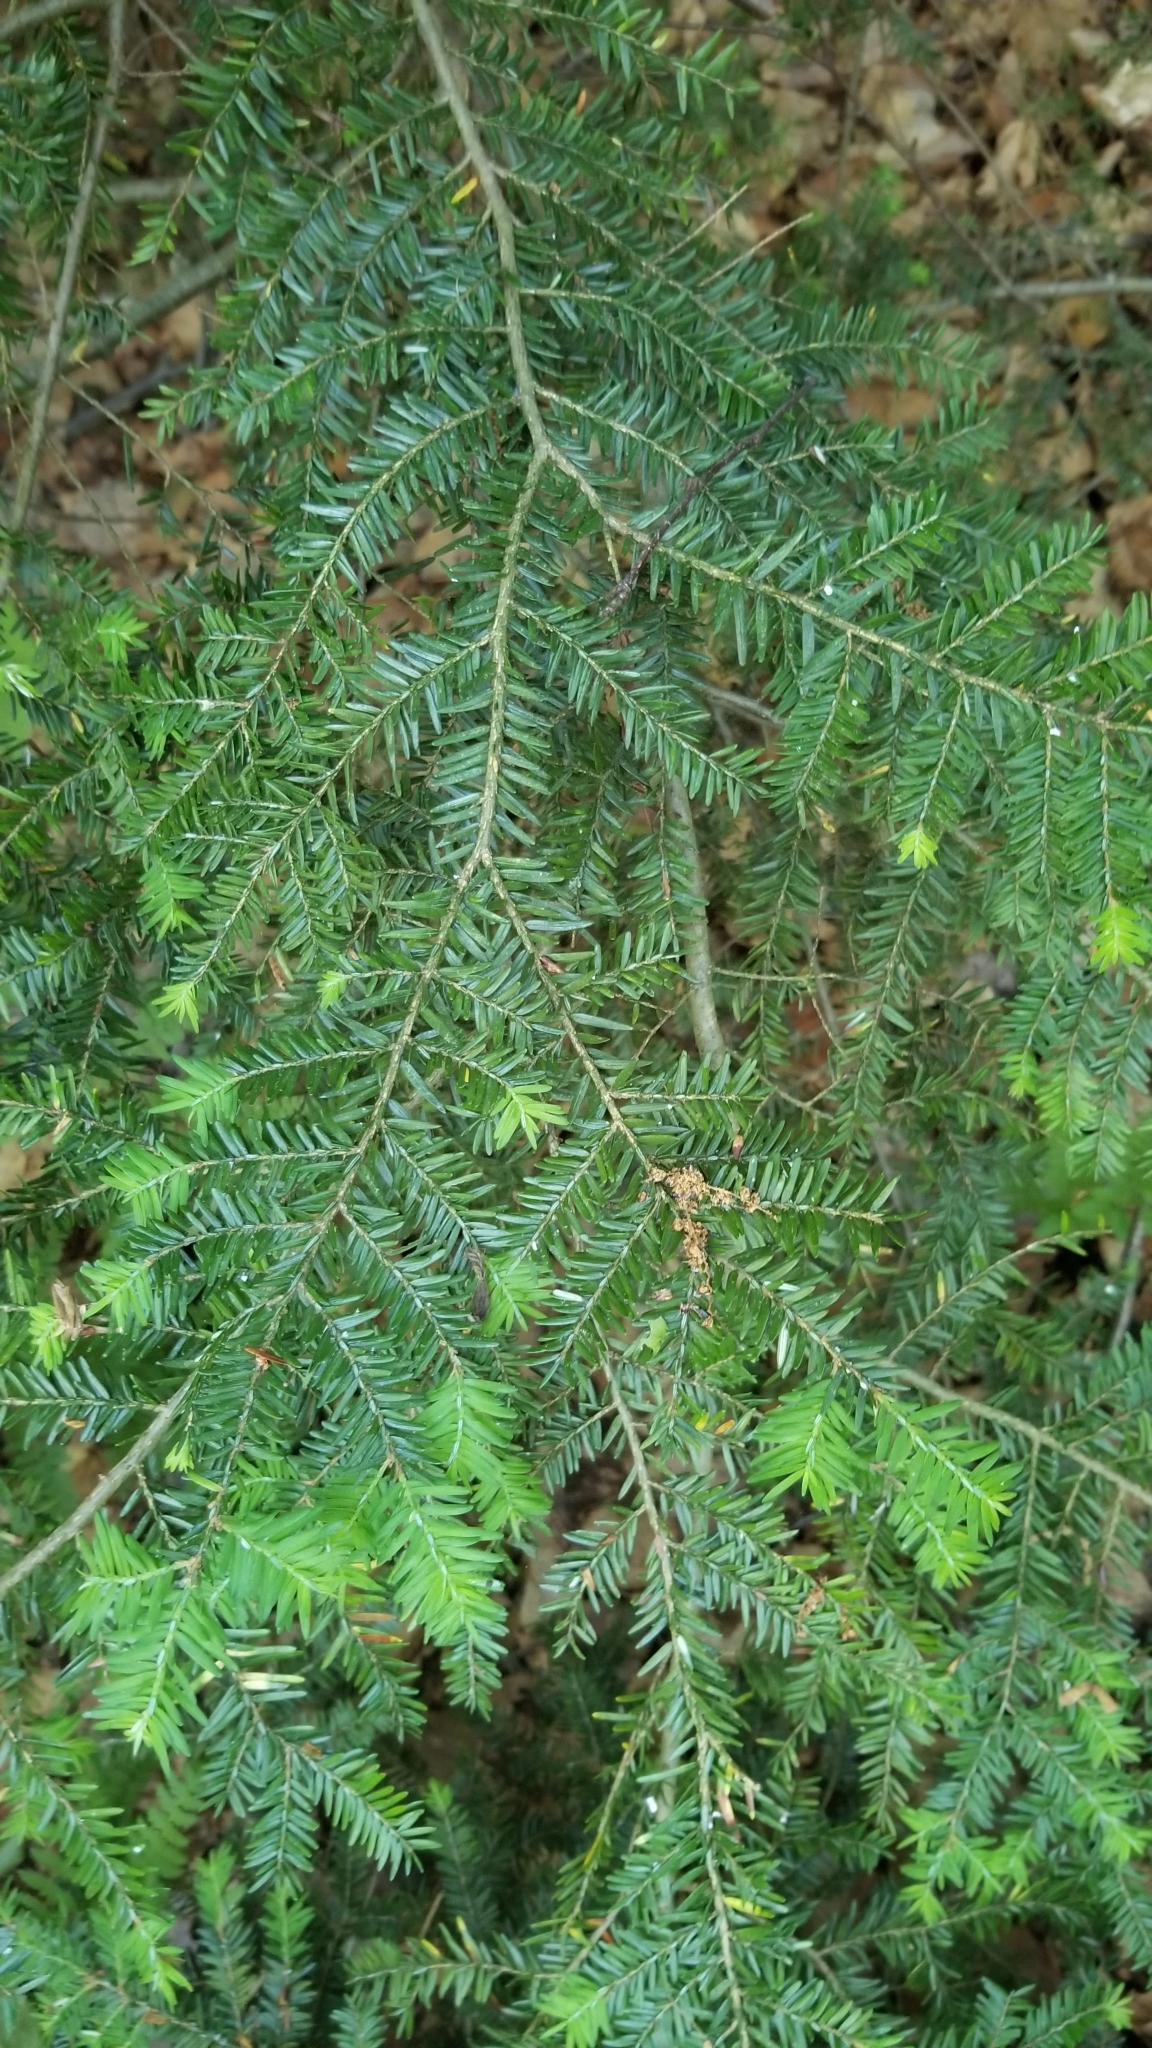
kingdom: Plantae
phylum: Tracheophyta
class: Pinopsida
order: Pinales
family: Pinaceae
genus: Tsuga
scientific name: Tsuga canadensis
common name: Eastern hemlock
